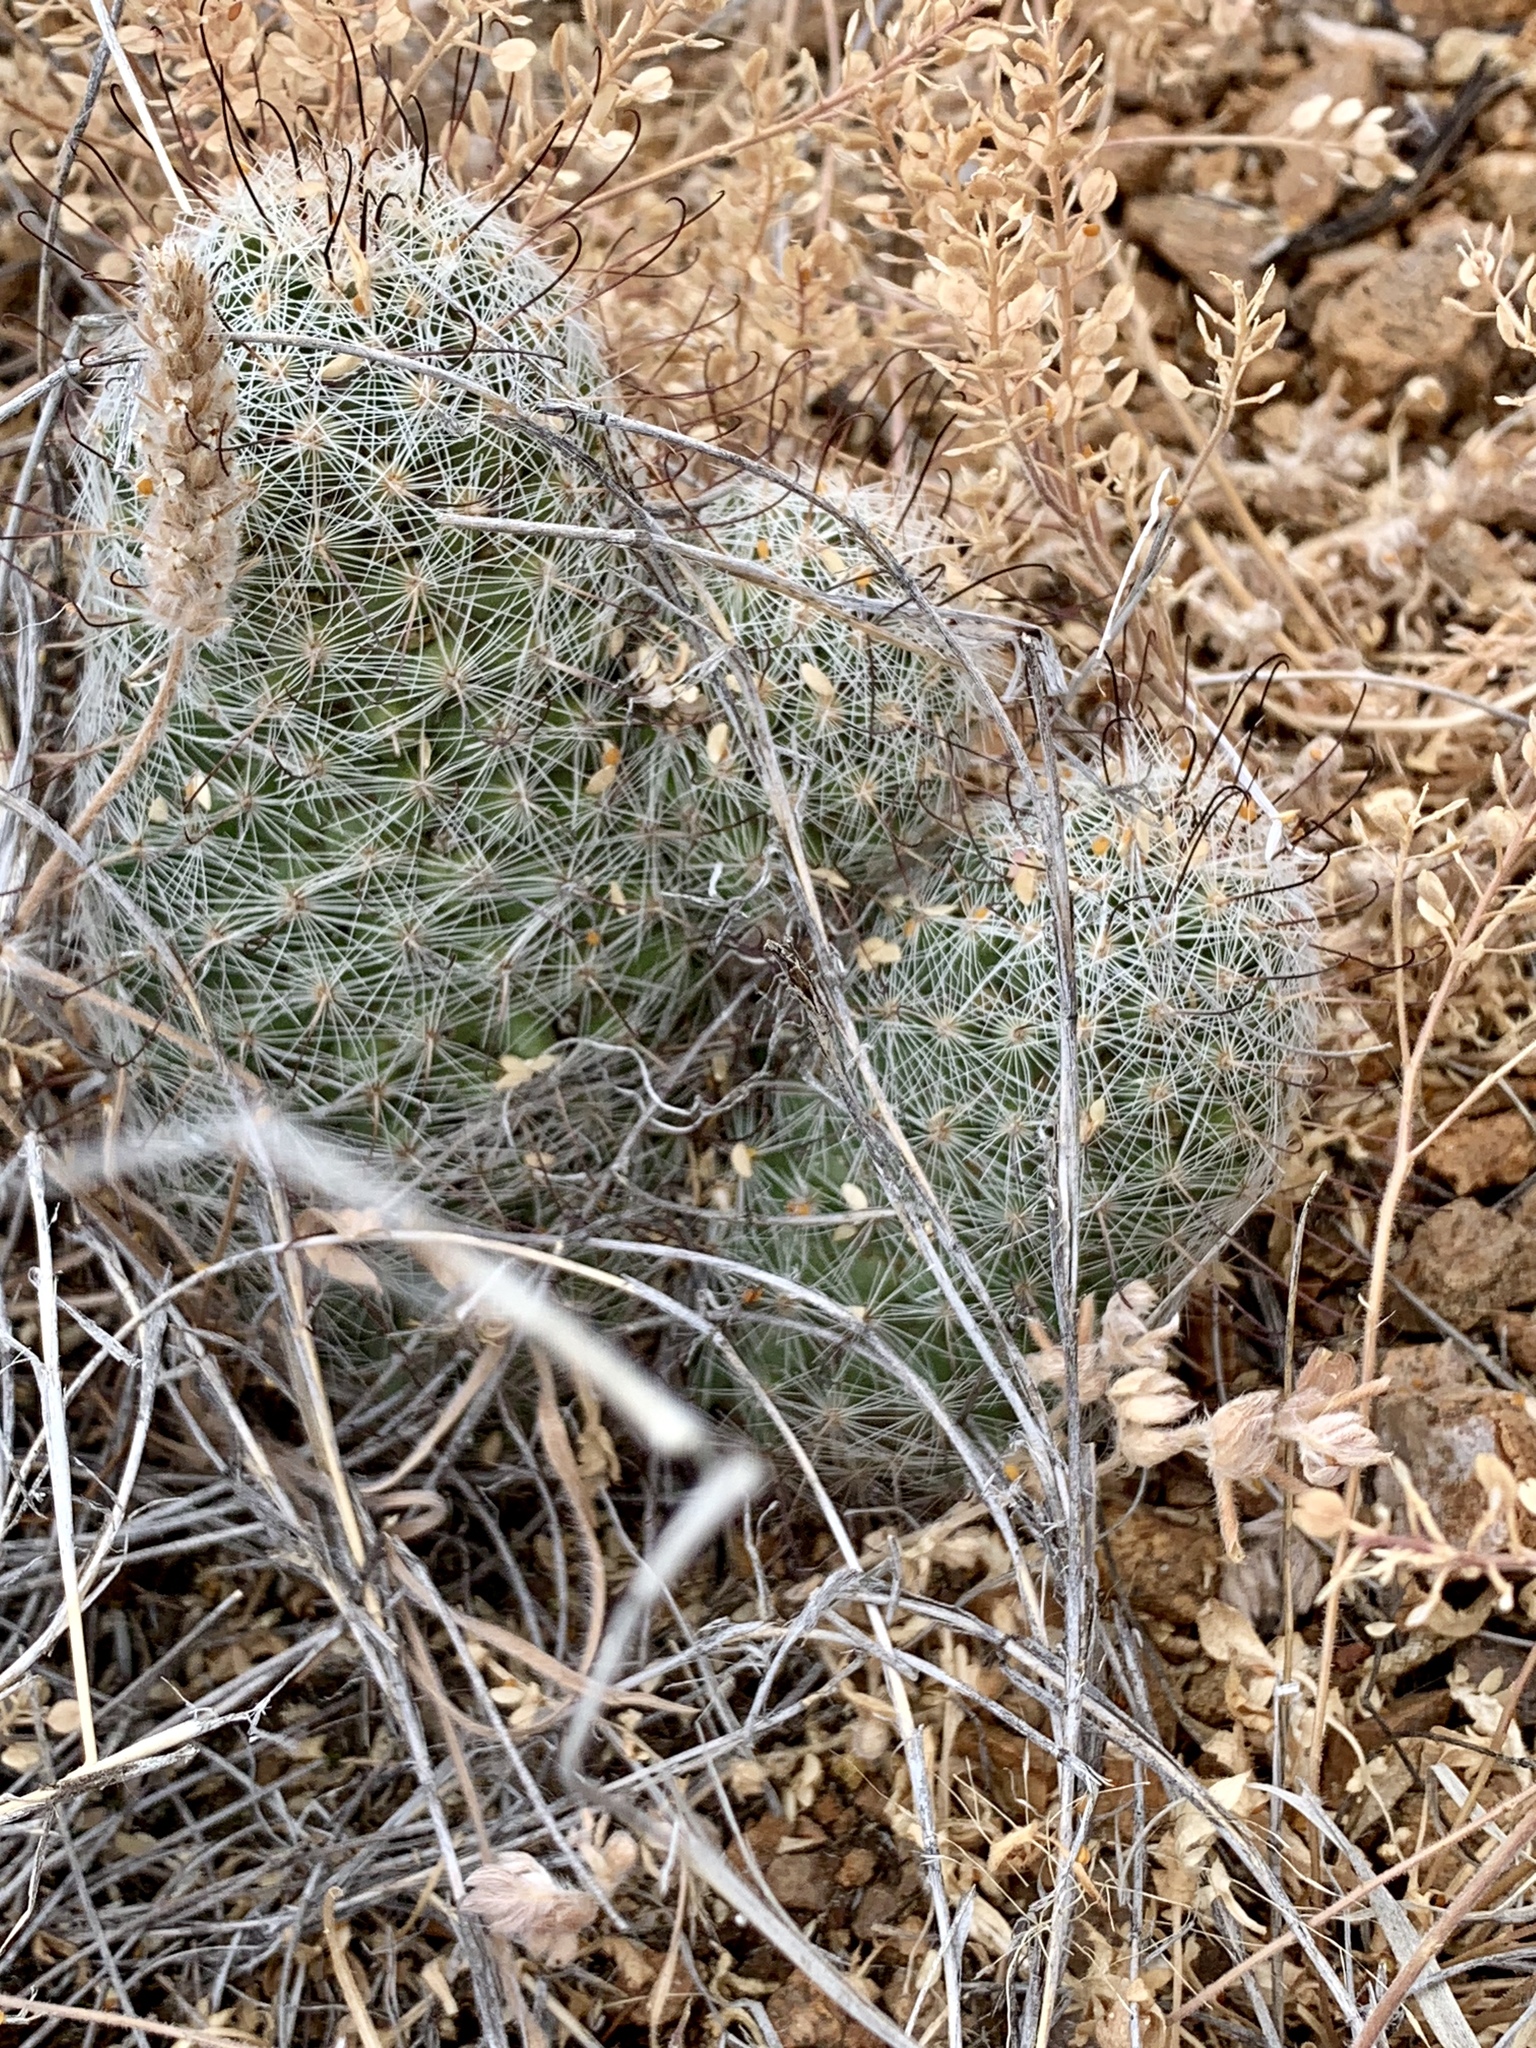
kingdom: Plantae
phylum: Tracheophyta
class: Magnoliopsida
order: Caryophyllales
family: Cactaceae
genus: Cochemiea
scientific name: Cochemiea grahamii
